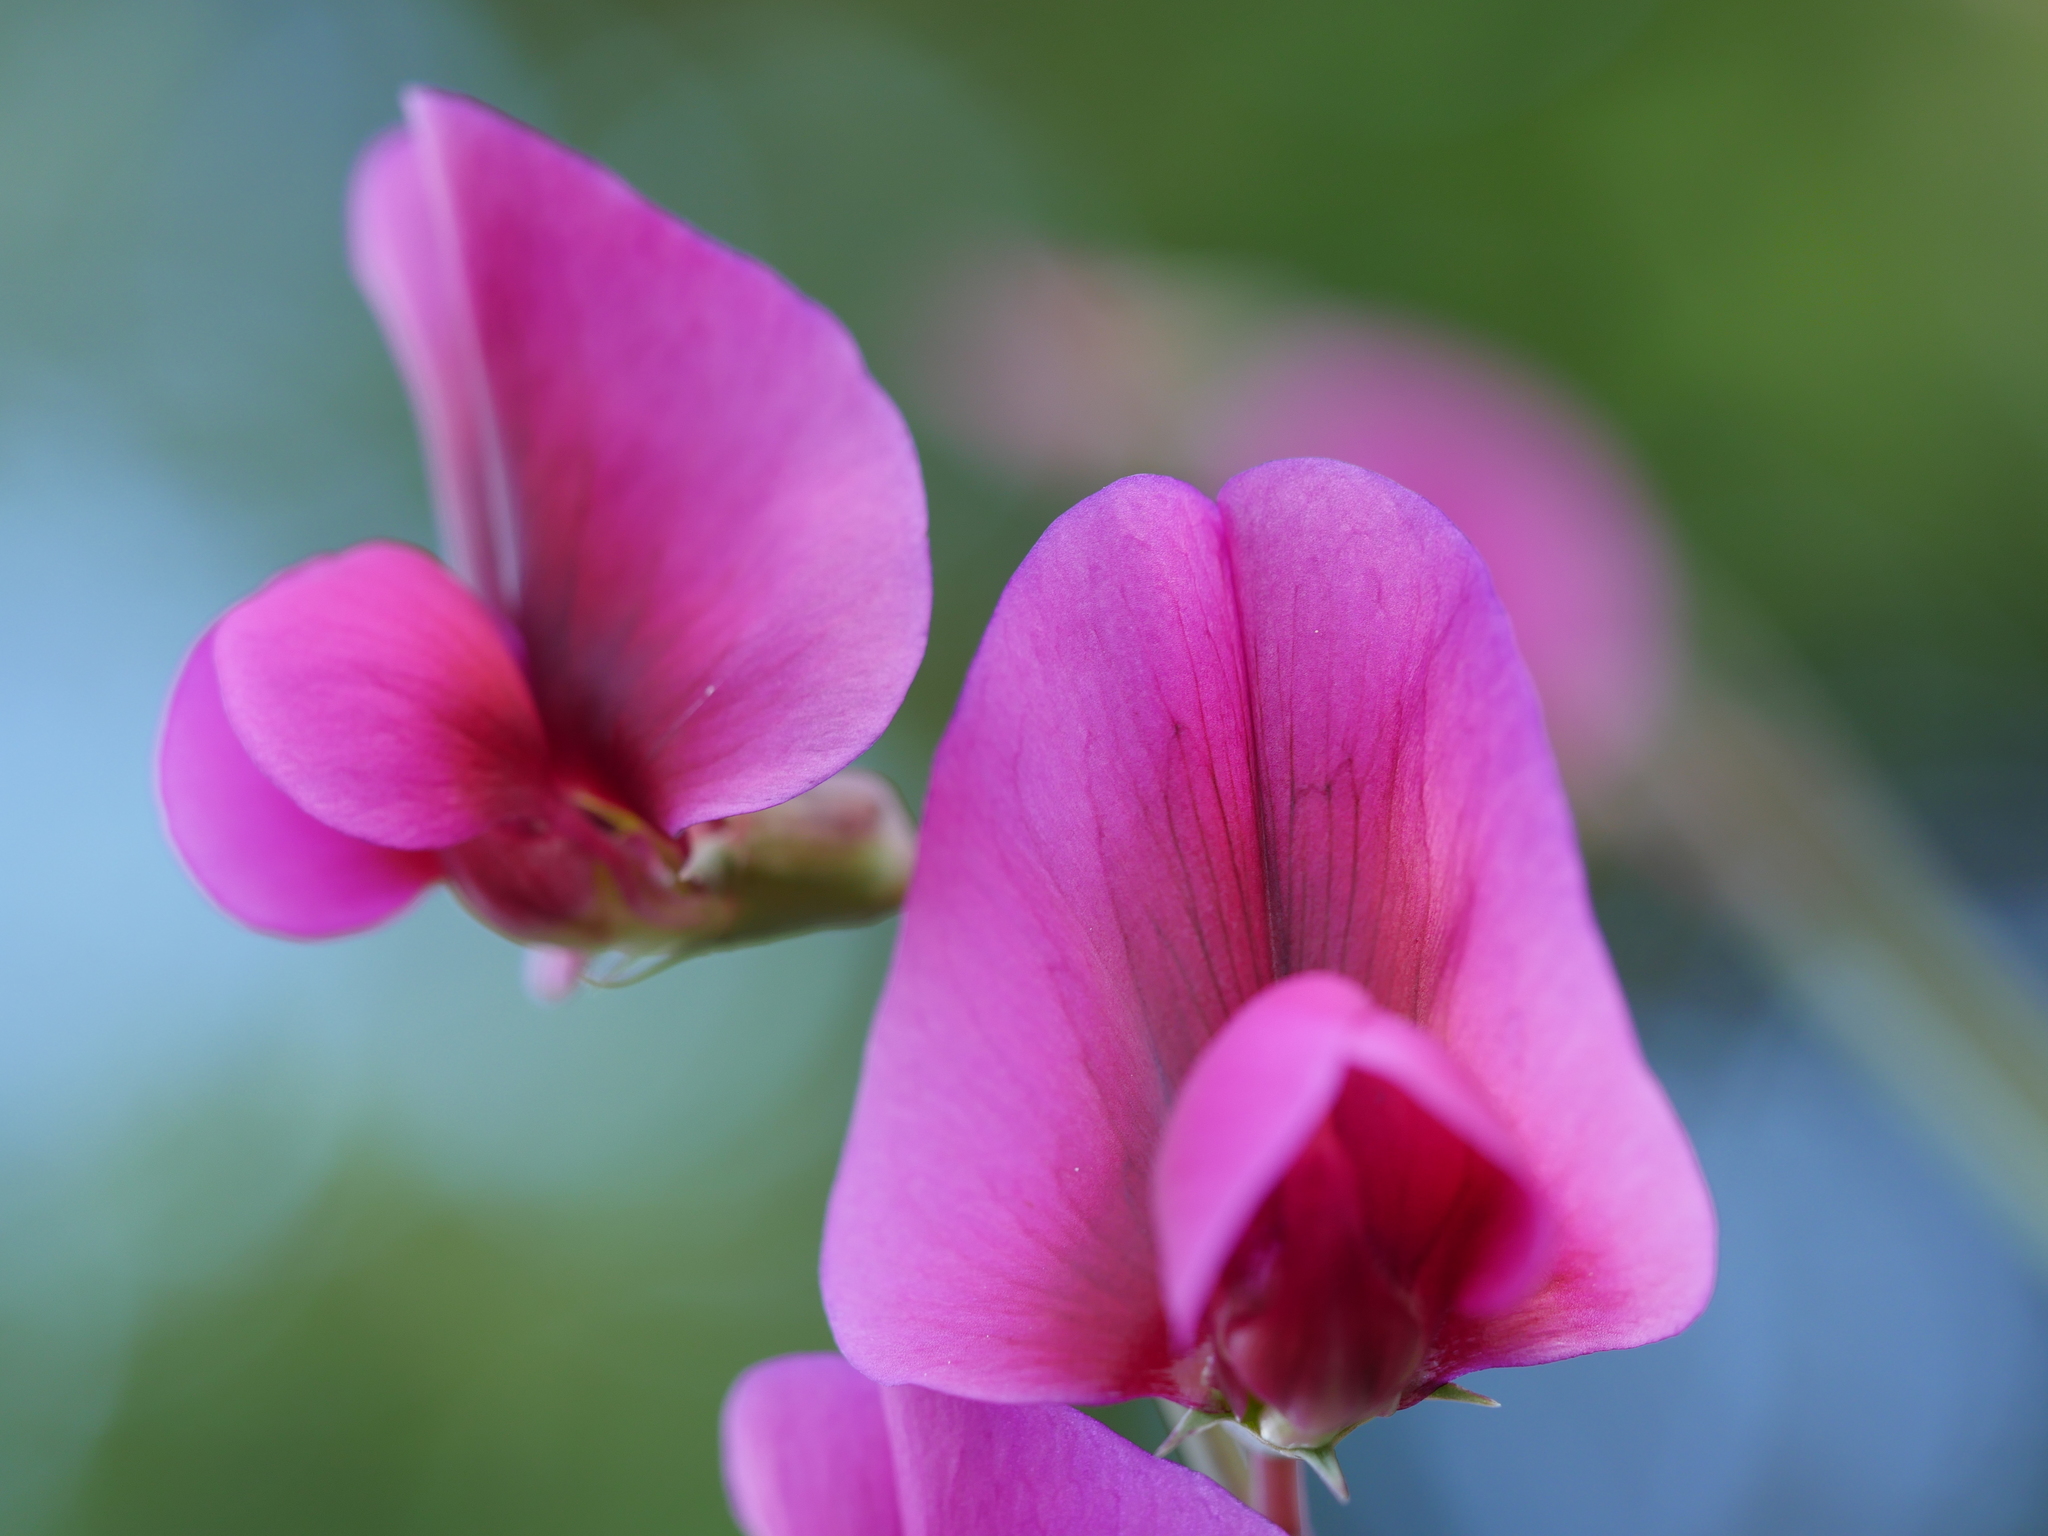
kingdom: Plantae
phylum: Tracheophyta
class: Magnoliopsida
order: Fabales
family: Fabaceae
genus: Lathyrus
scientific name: Lathyrus tingitanus
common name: Tangier pea
